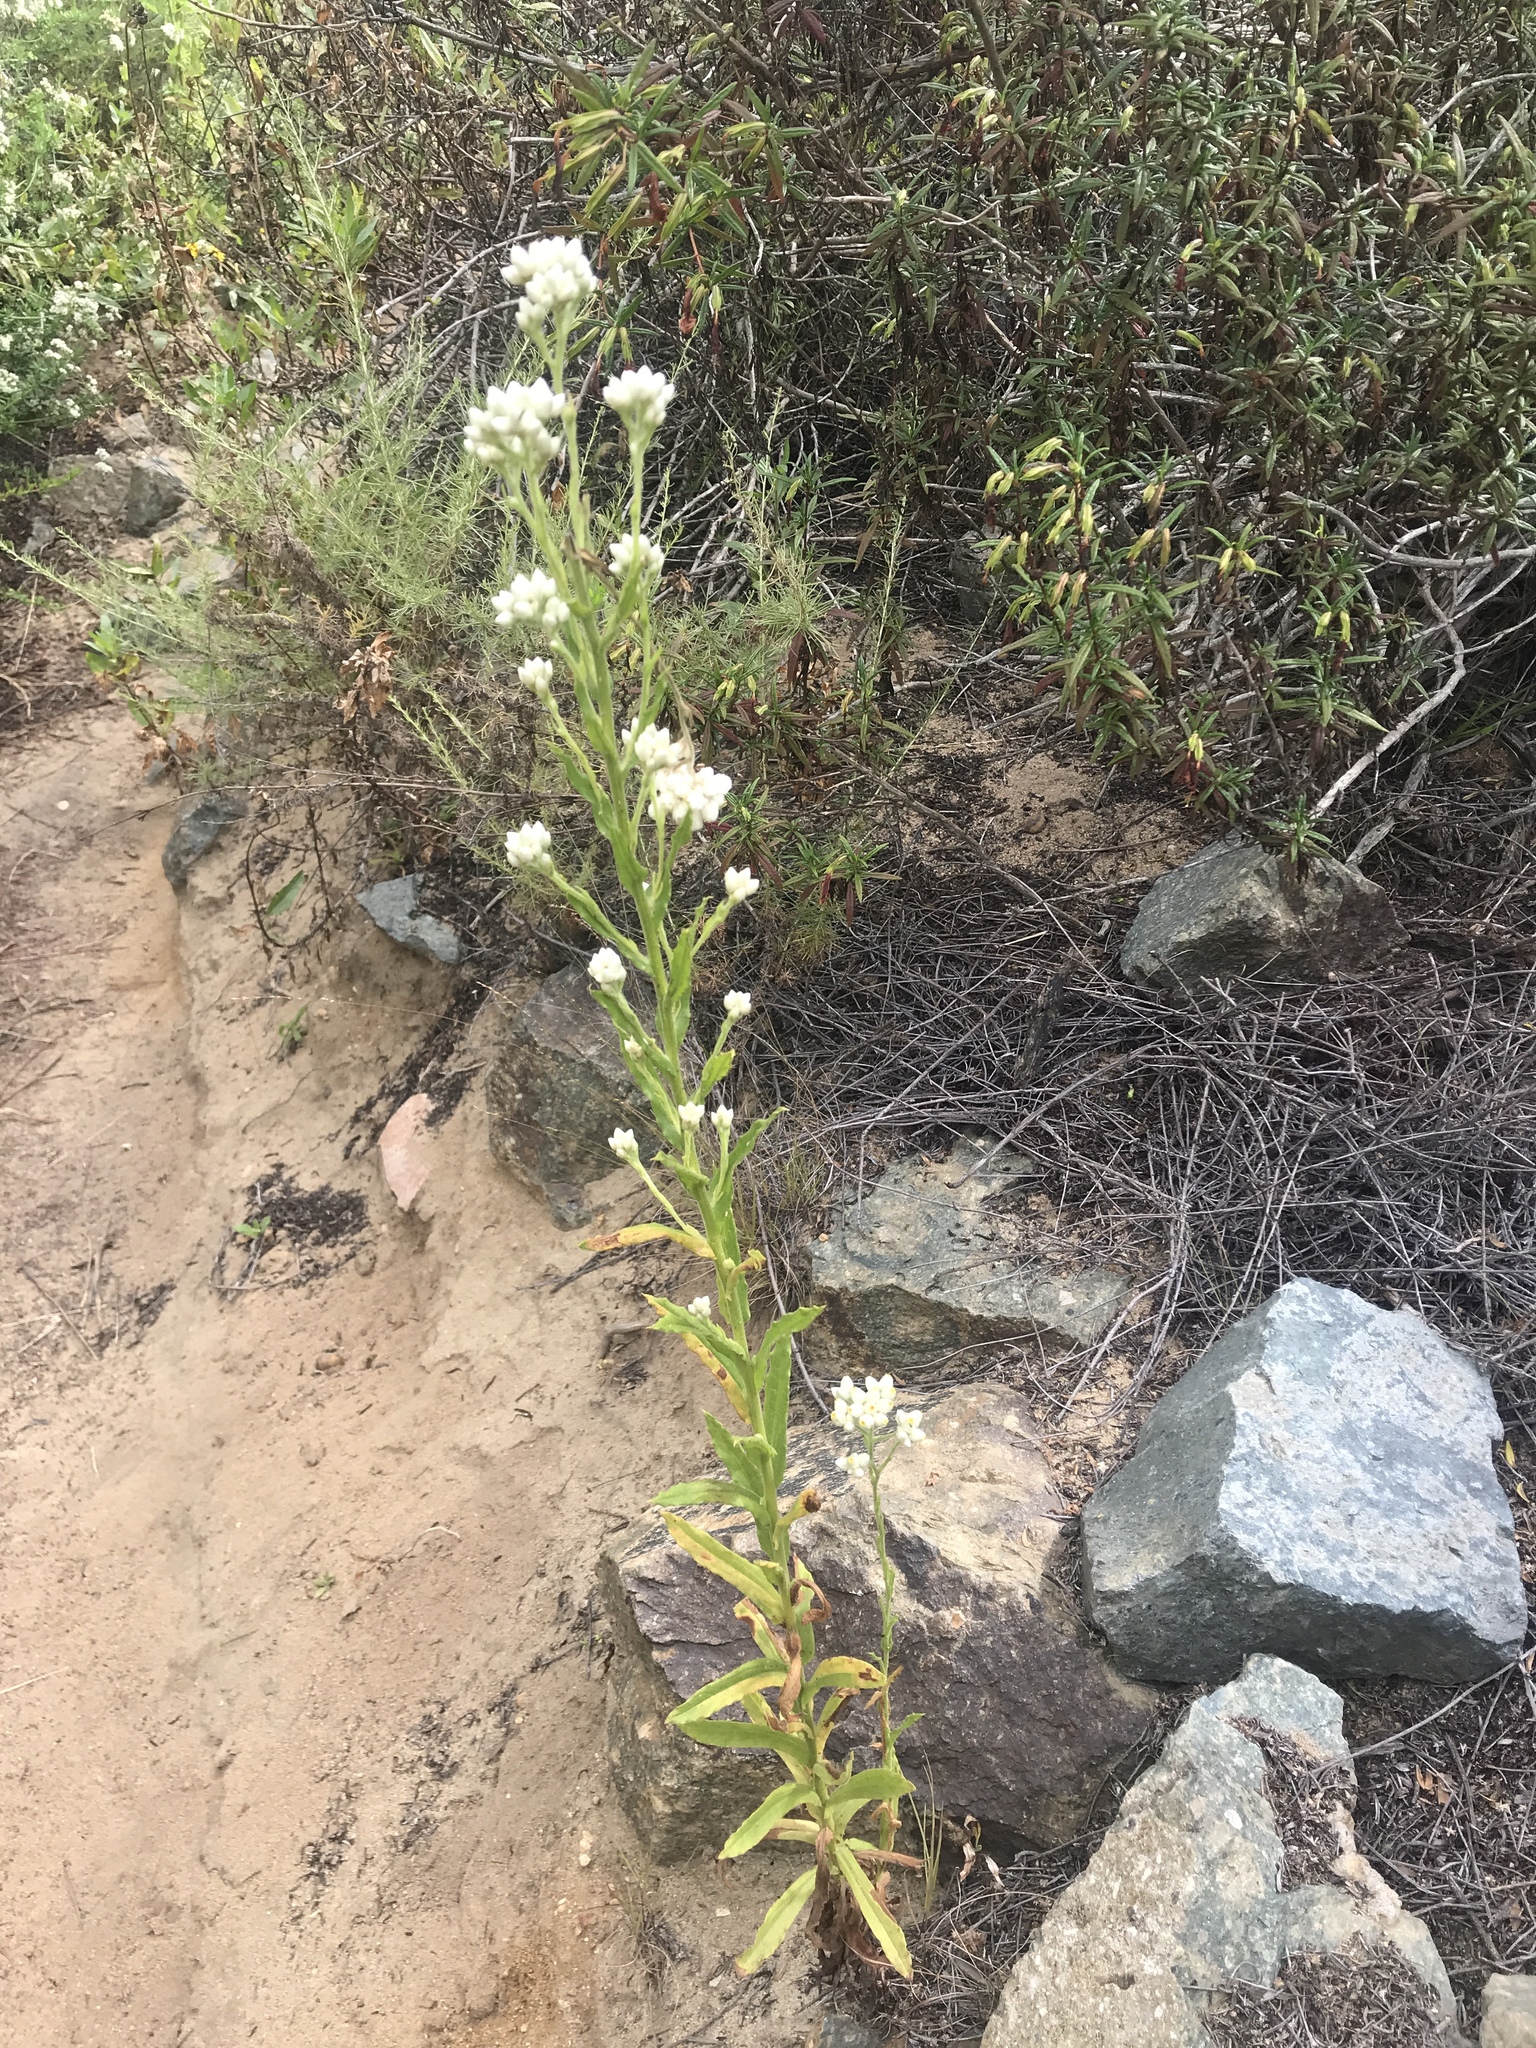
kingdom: Plantae
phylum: Tracheophyta
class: Magnoliopsida
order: Asterales
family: Asteraceae
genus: Pseudognaphalium
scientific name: Pseudognaphalium californicum
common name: California rabbit-tobacco
